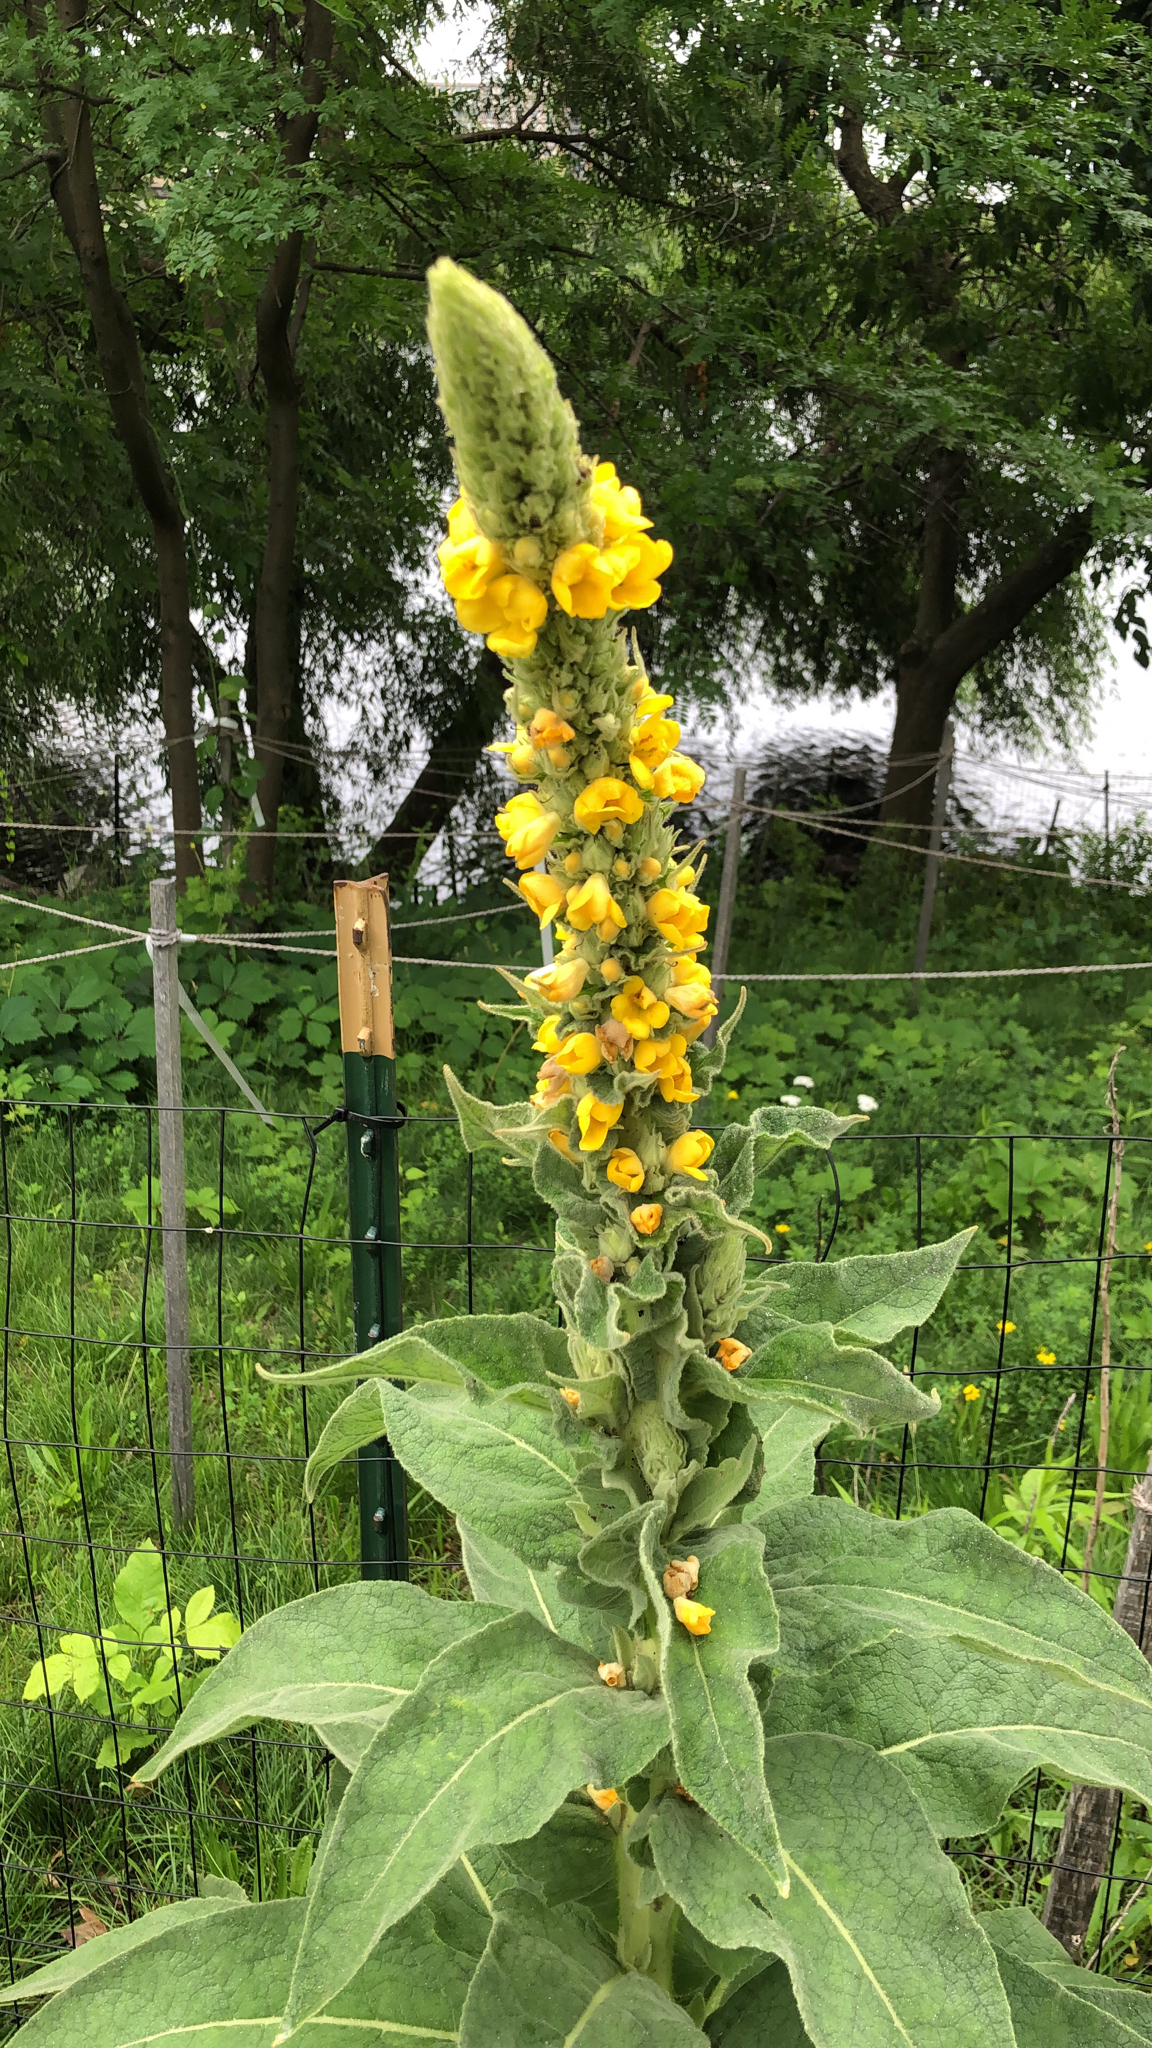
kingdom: Plantae
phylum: Tracheophyta
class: Magnoliopsida
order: Lamiales
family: Scrophulariaceae
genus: Verbascum
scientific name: Verbascum thapsus
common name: Common mullein
